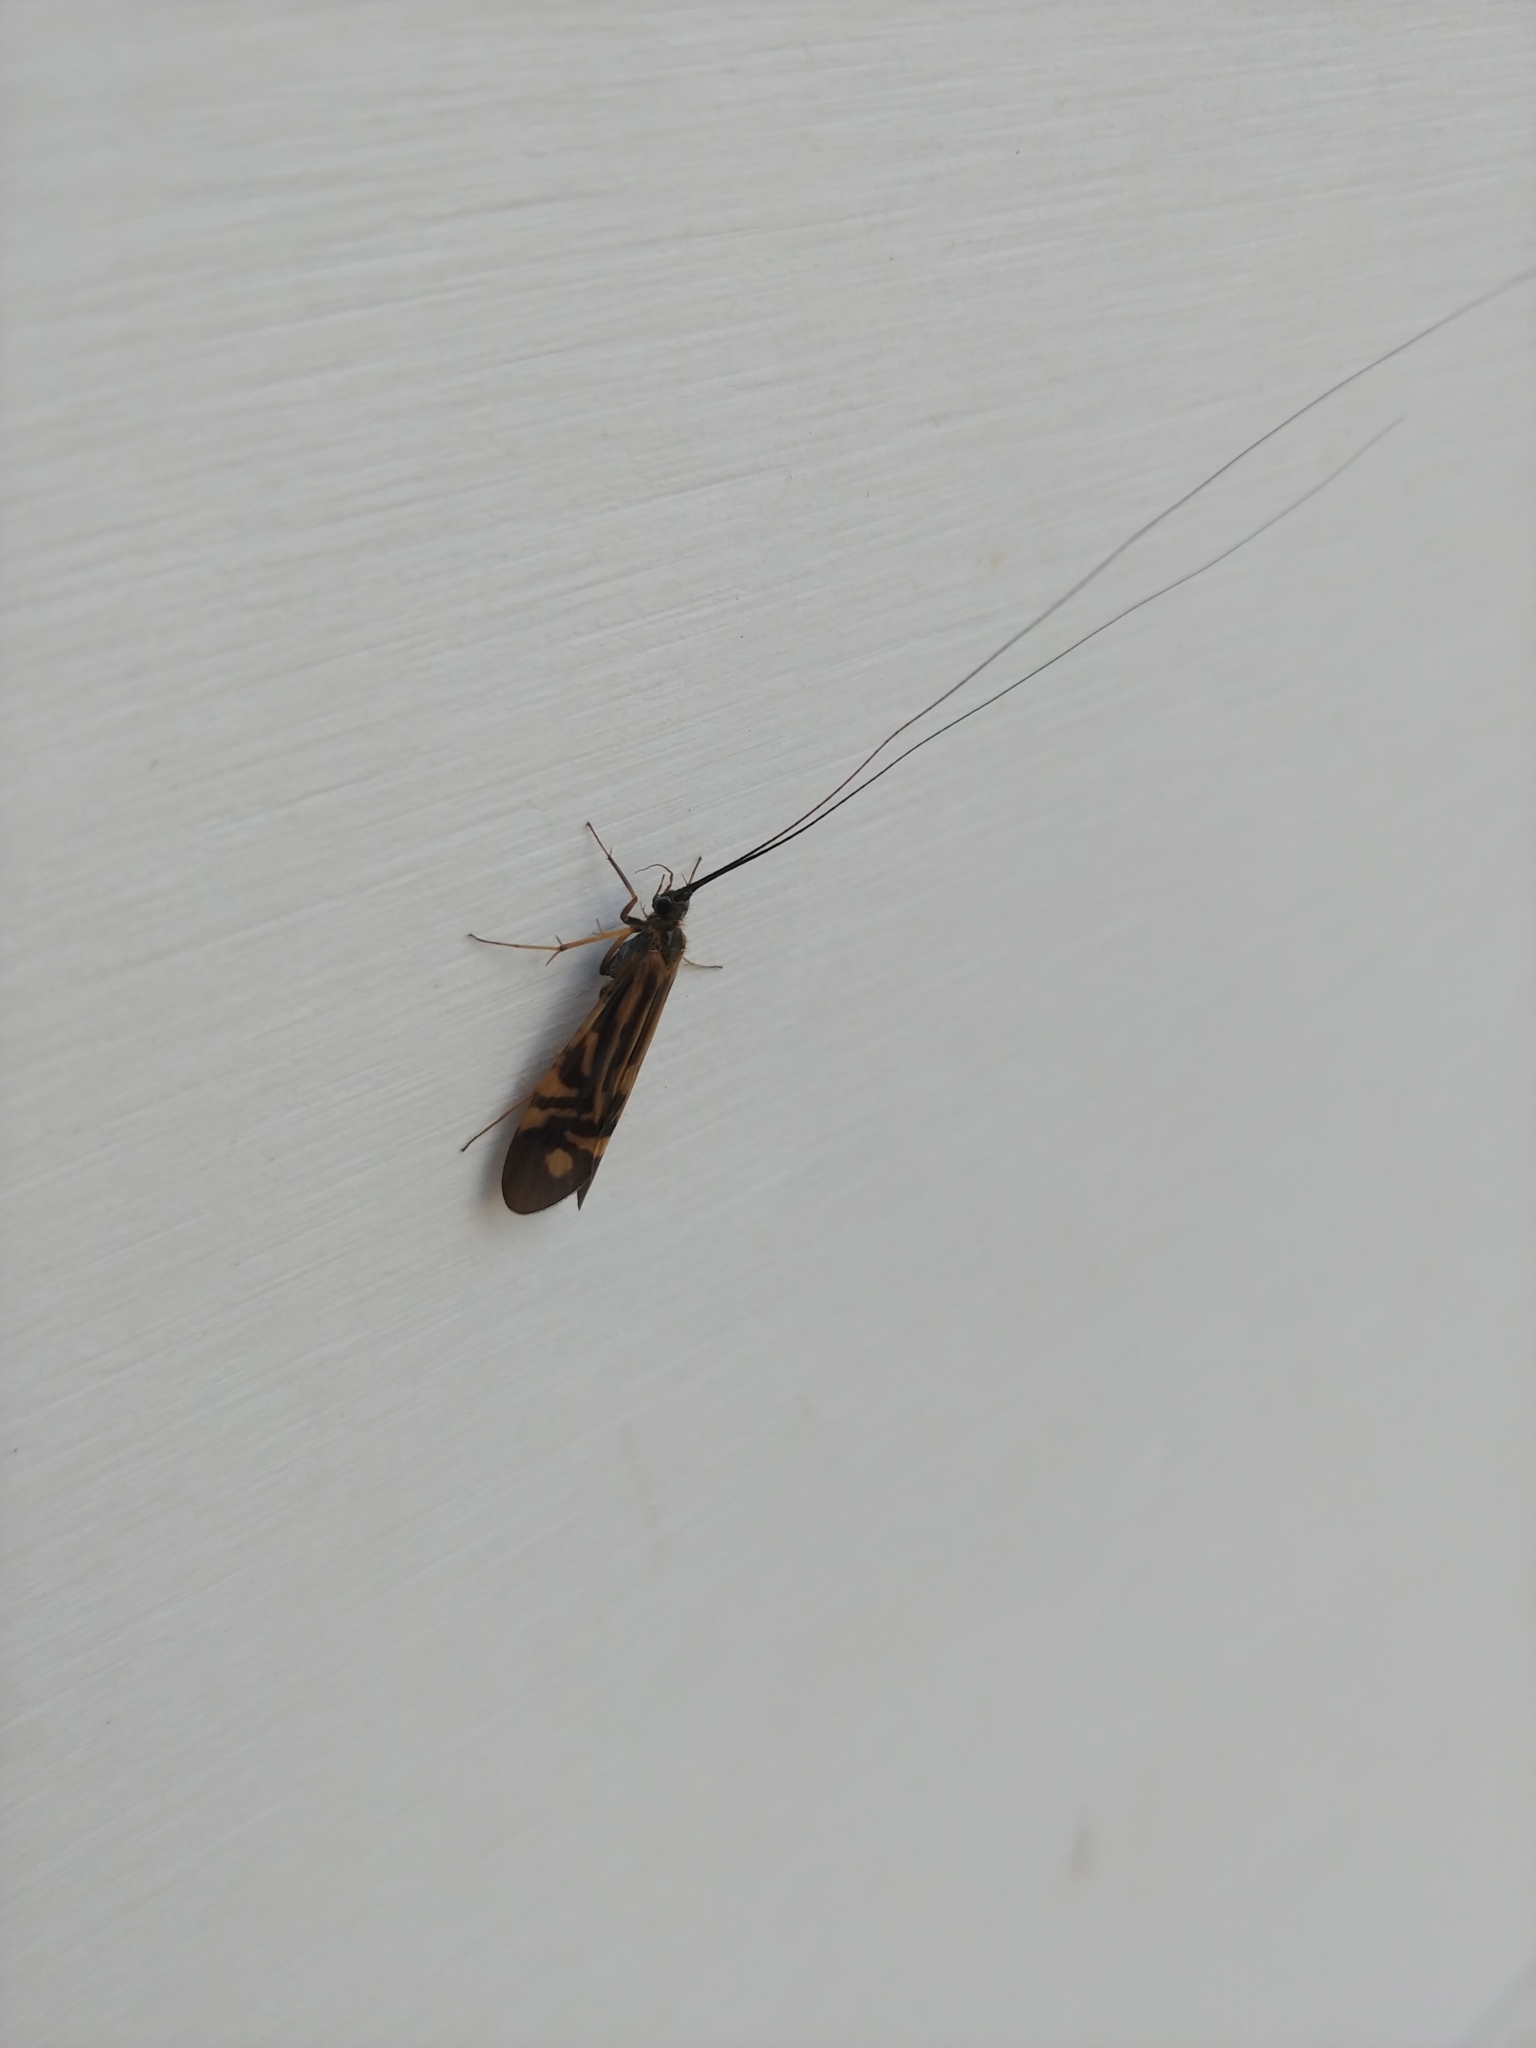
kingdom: Animalia
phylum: Arthropoda
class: Insecta
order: Trichoptera
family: Hydropsychidae
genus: Macrostemum
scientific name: Macrostemum zebratum
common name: Zebra caddisfly
